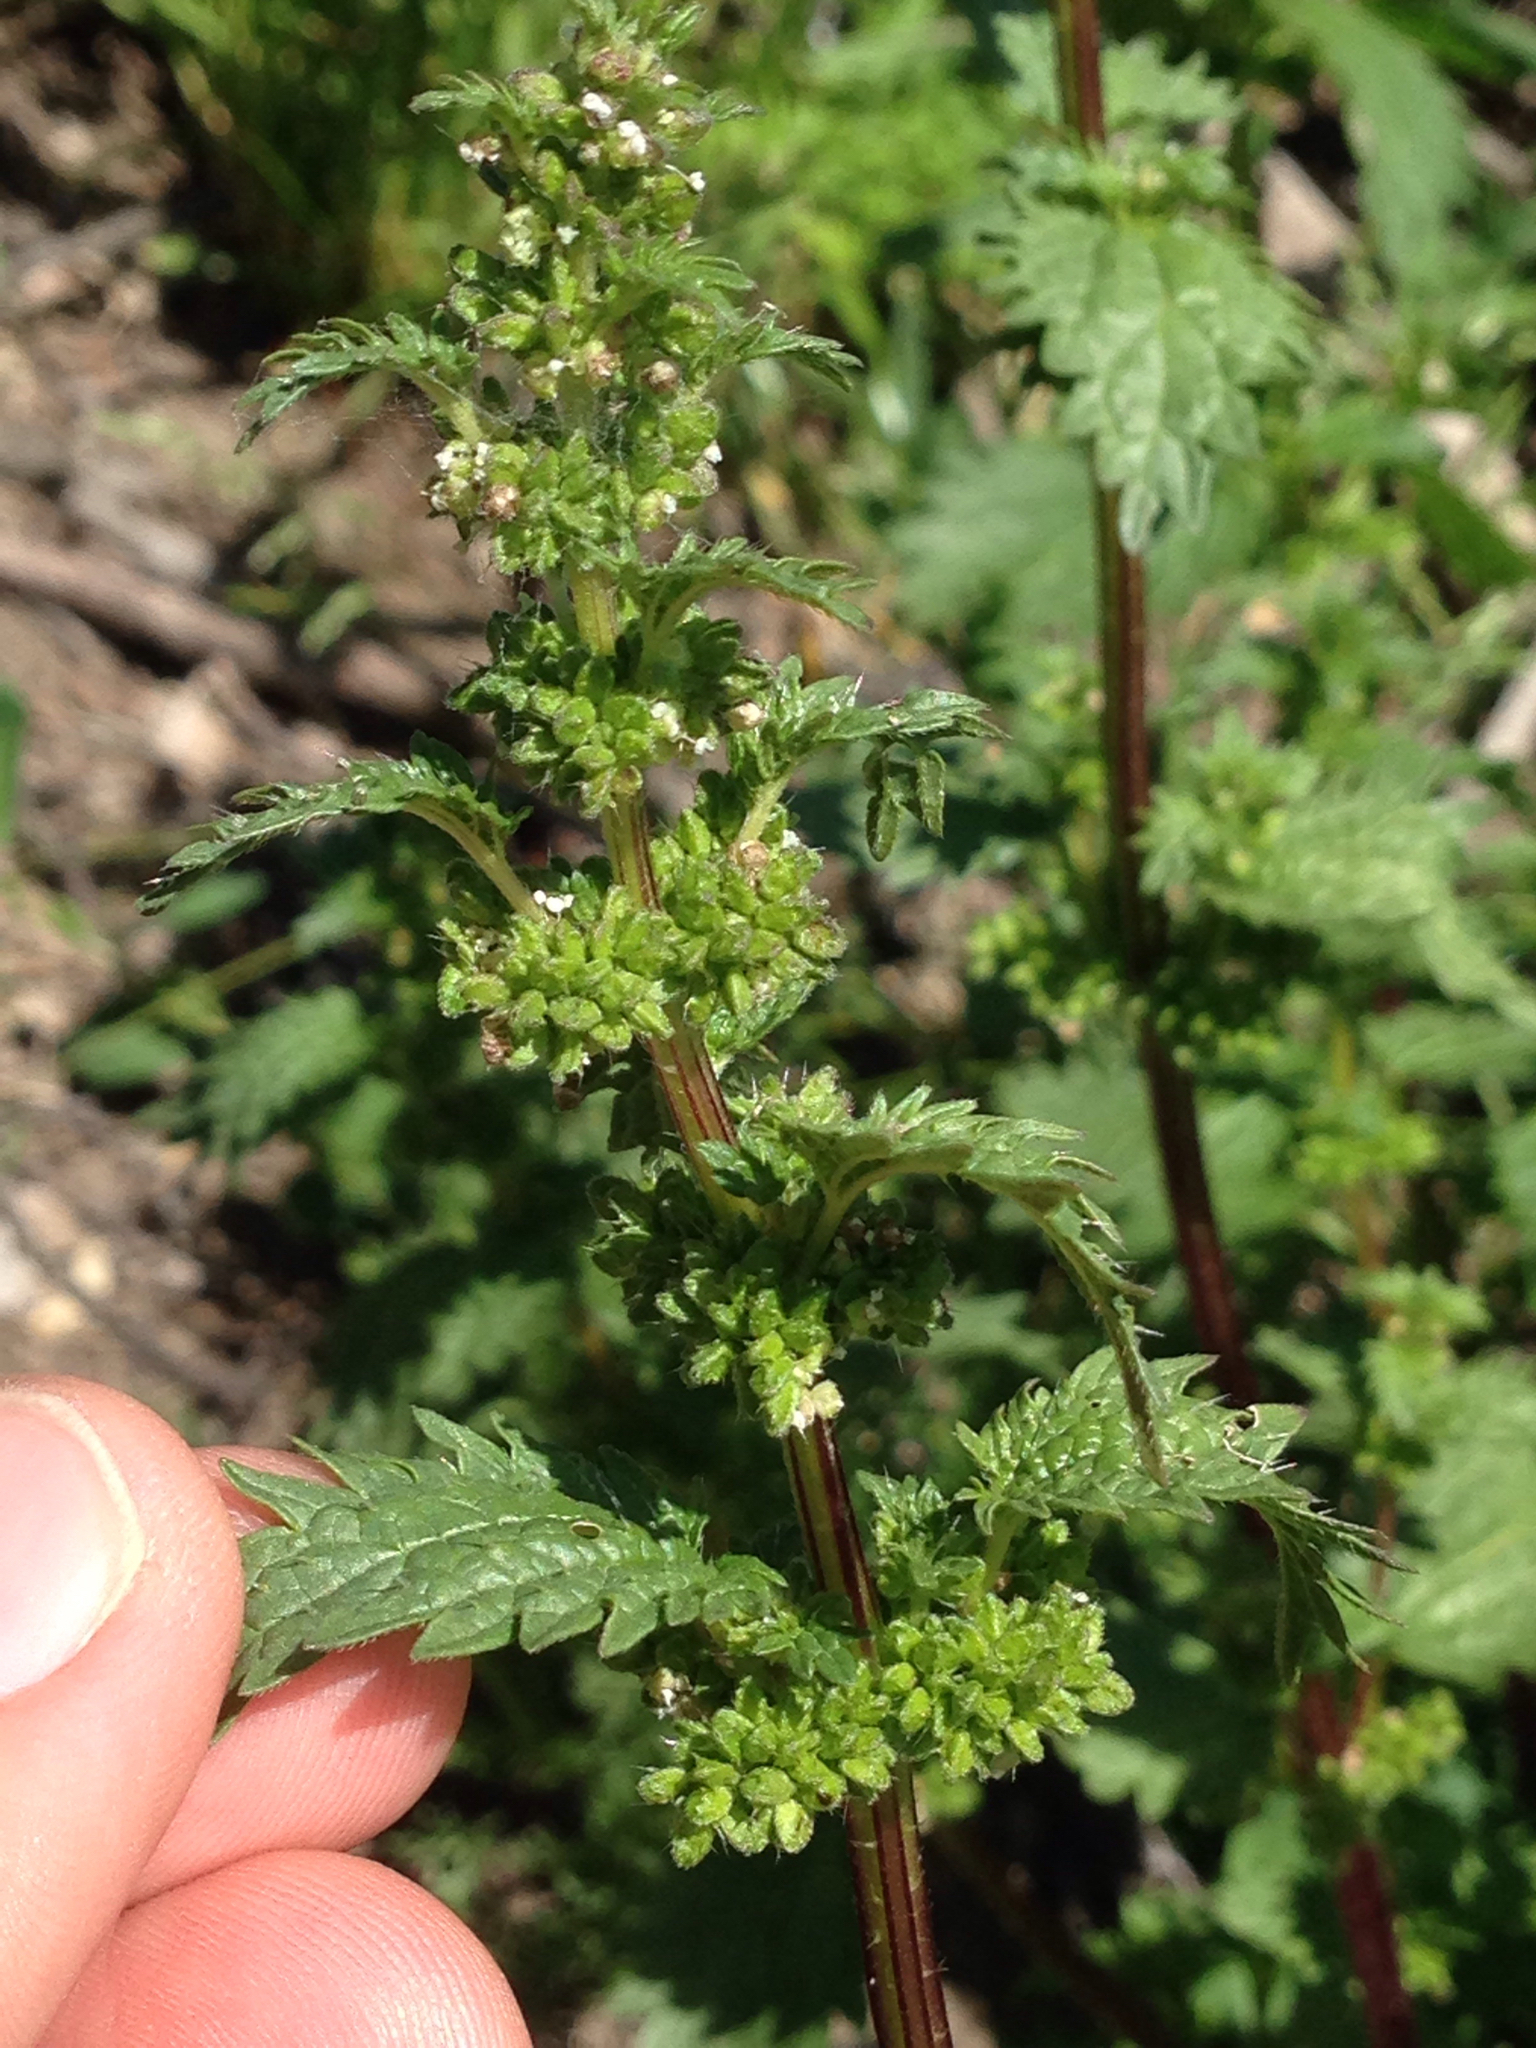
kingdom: Plantae
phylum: Tracheophyta
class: Magnoliopsida
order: Rosales
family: Urticaceae
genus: Urtica
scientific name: Urtica urens
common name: Dwarf nettle
